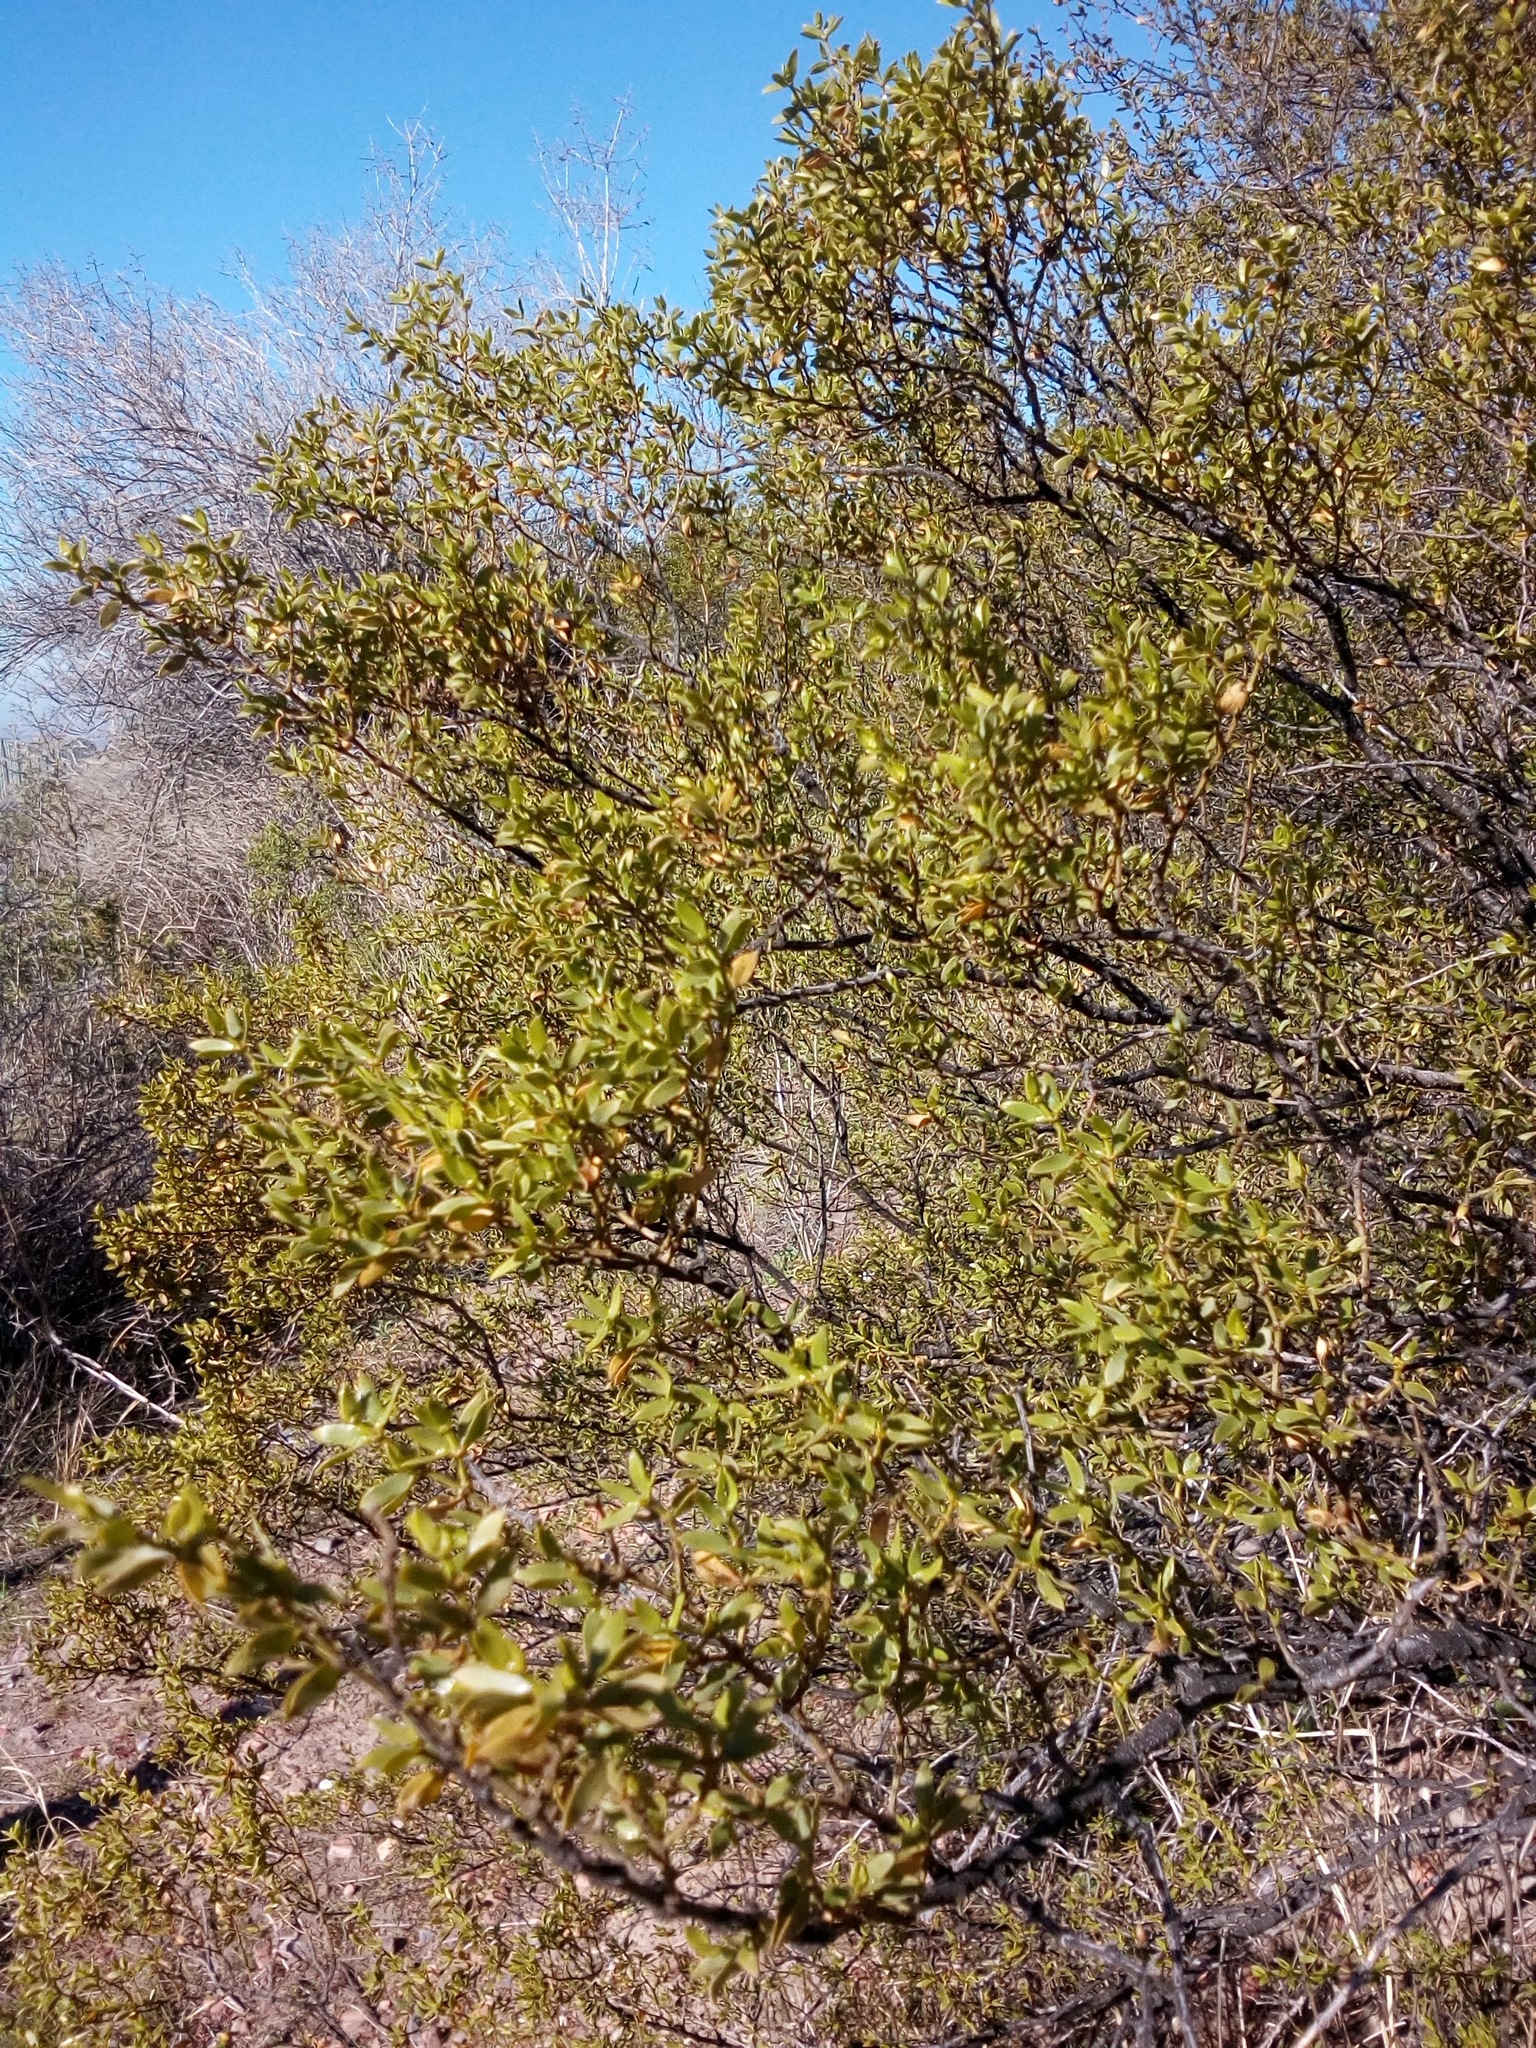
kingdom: Plantae
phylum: Tracheophyta
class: Magnoliopsida
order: Zygophyllales
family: Zygophyllaceae
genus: Larrea
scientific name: Larrea divaricata
